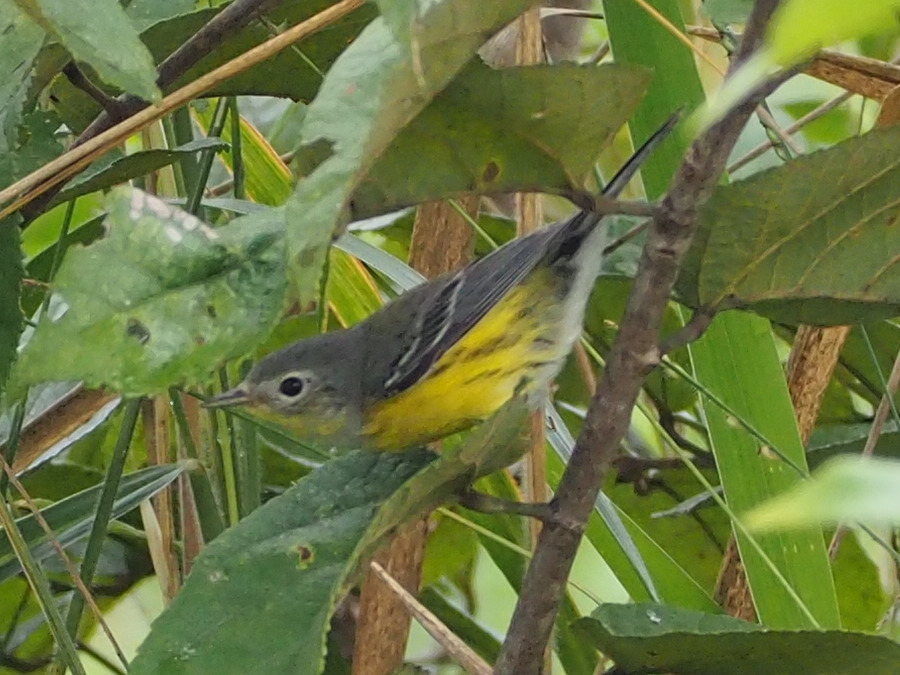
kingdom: Animalia
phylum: Chordata
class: Aves
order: Passeriformes
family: Parulidae
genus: Setophaga
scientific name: Setophaga magnolia
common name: Magnolia warbler
